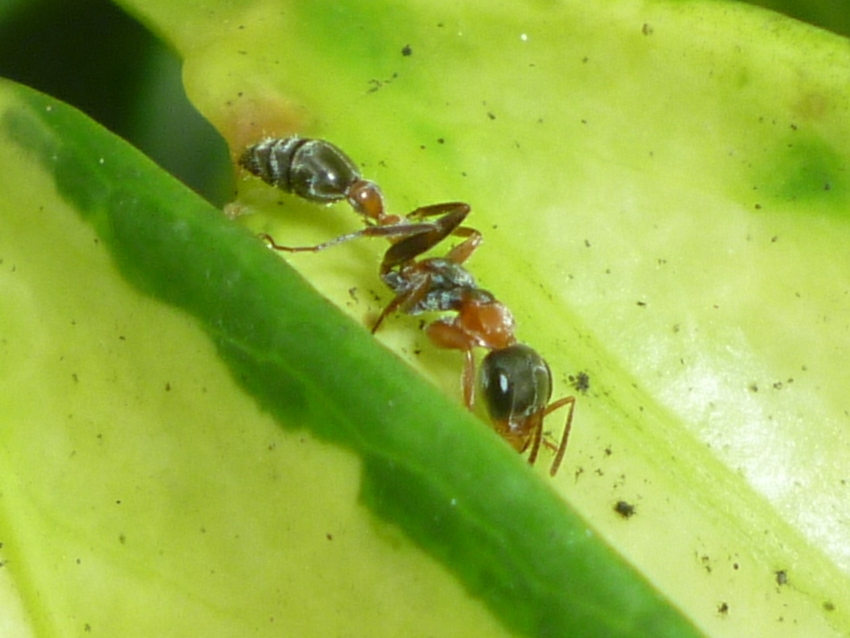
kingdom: Animalia
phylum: Arthropoda
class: Insecta
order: Hymenoptera
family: Formicidae
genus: Pseudomyrmex
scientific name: Pseudomyrmex gracilis
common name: Graceful twig ant
